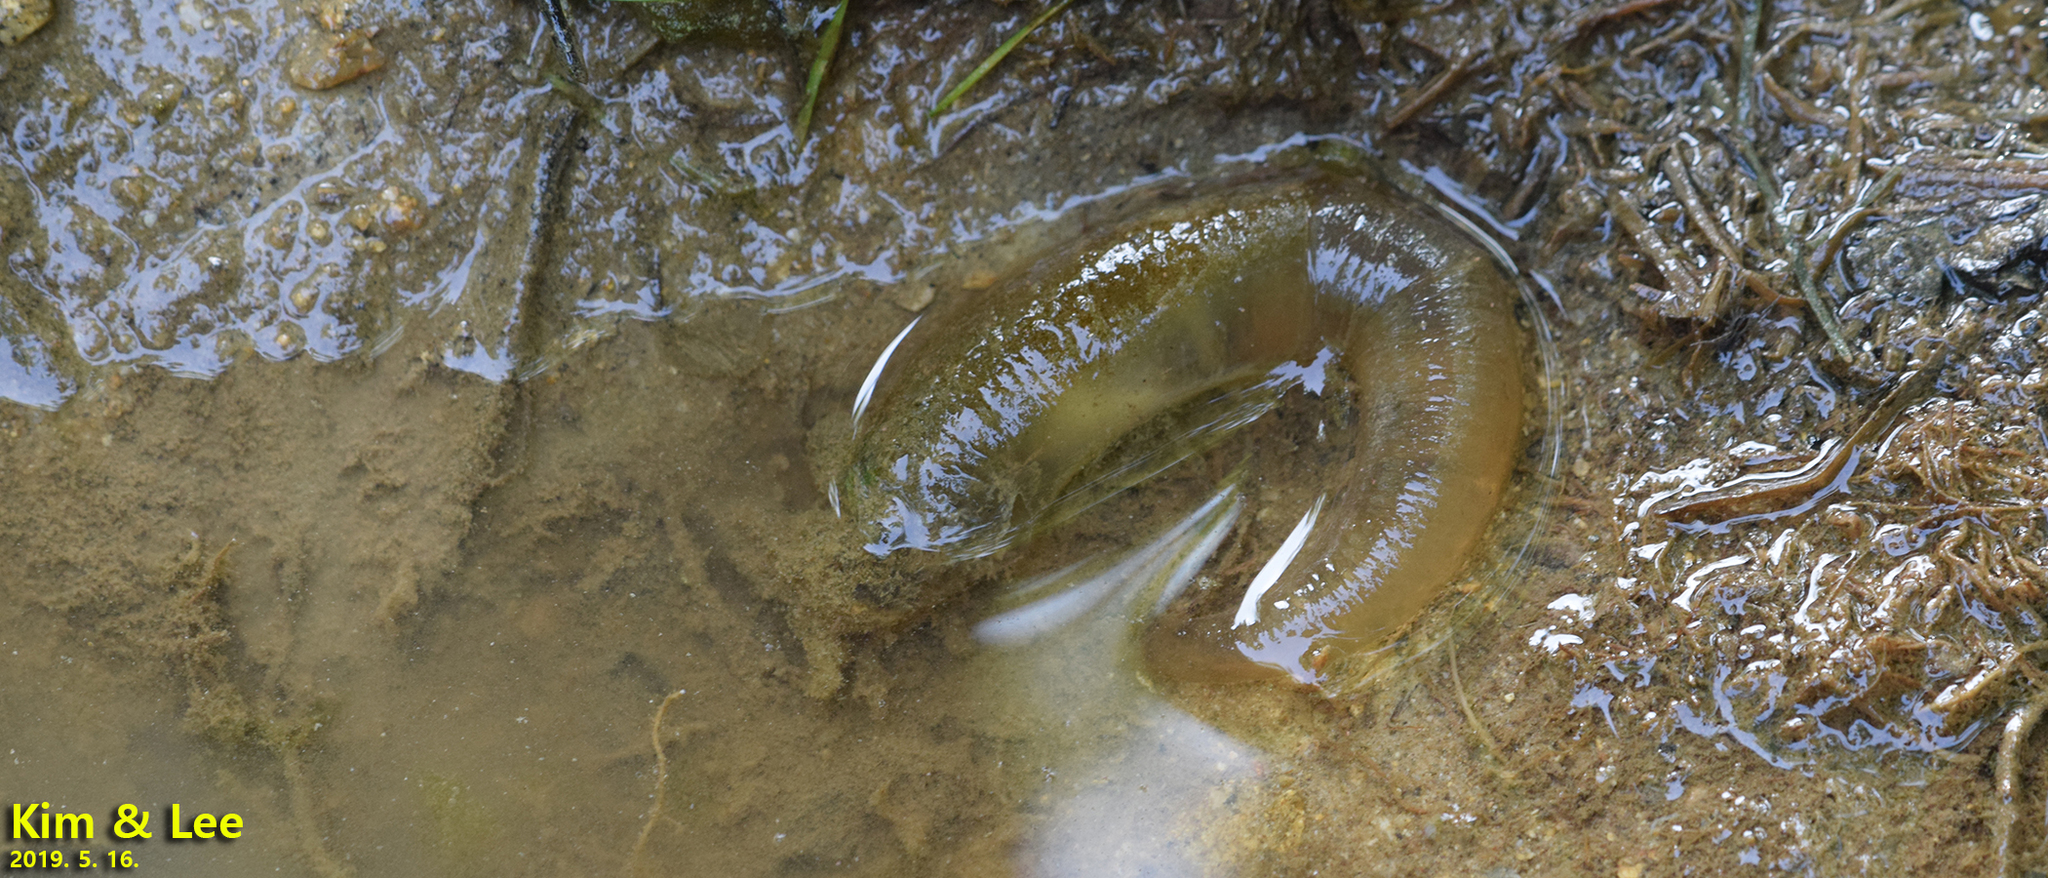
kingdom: Animalia
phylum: Chordata
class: Amphibia
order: Caudata
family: Hynobiidae
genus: Hynobius
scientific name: Hynobius leechii
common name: Gensan salamander
